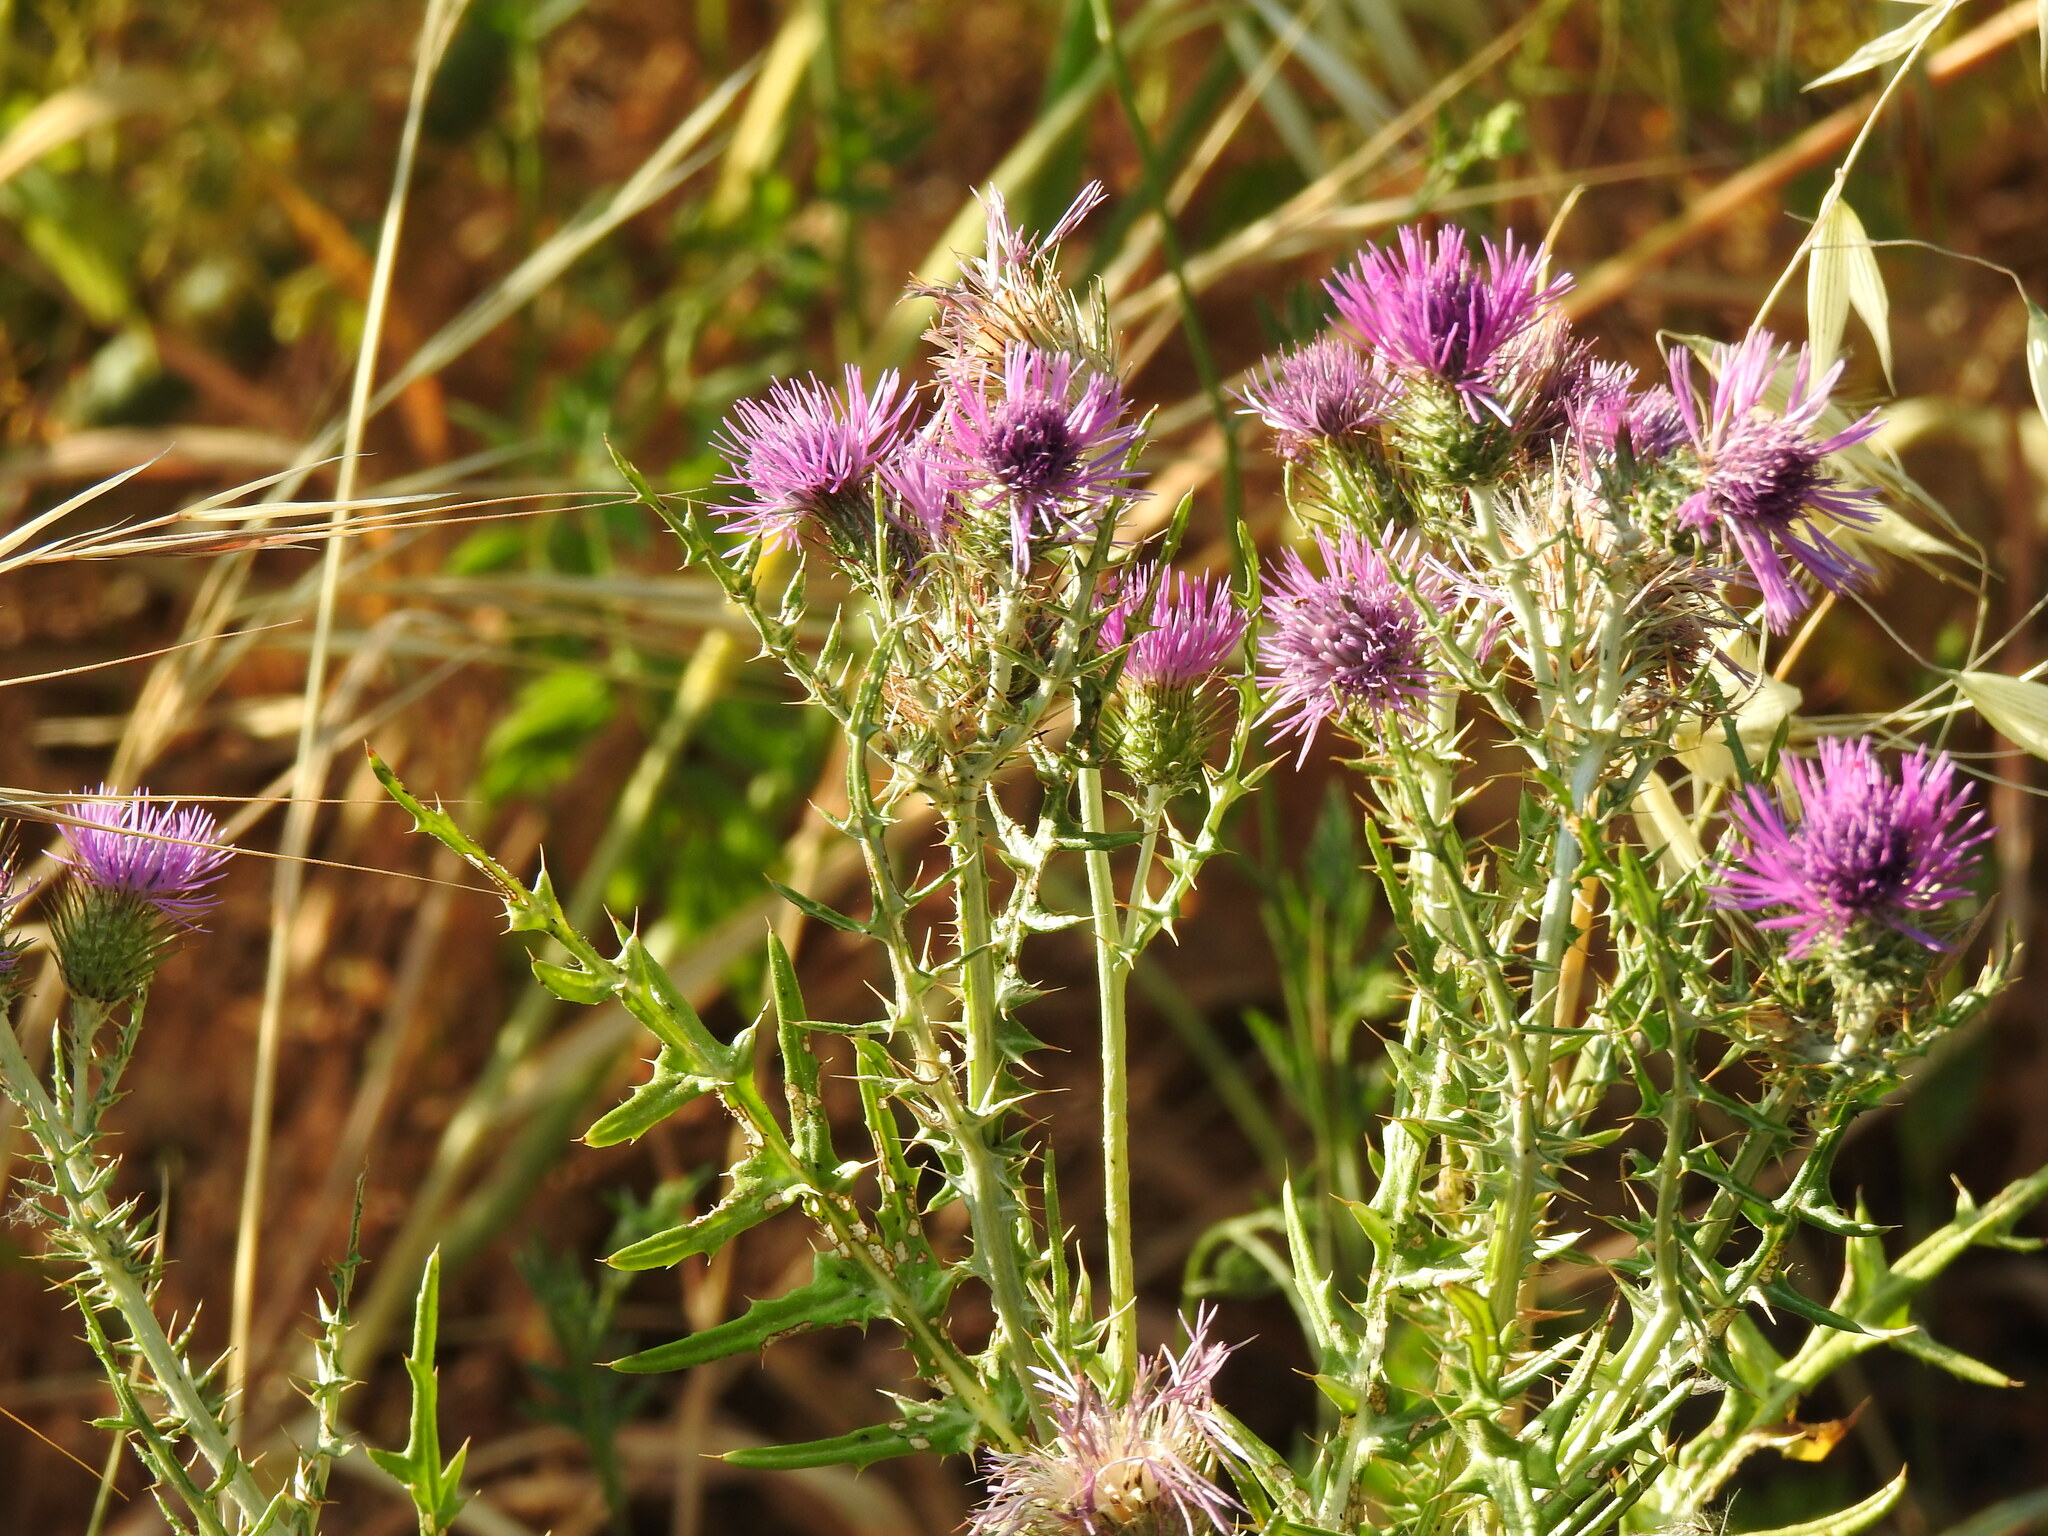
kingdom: Plantae
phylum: Tracheophyta
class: Magnoliopsida
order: Asterales
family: Asteraceae
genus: Galactites
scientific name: Galactites tomentosa
